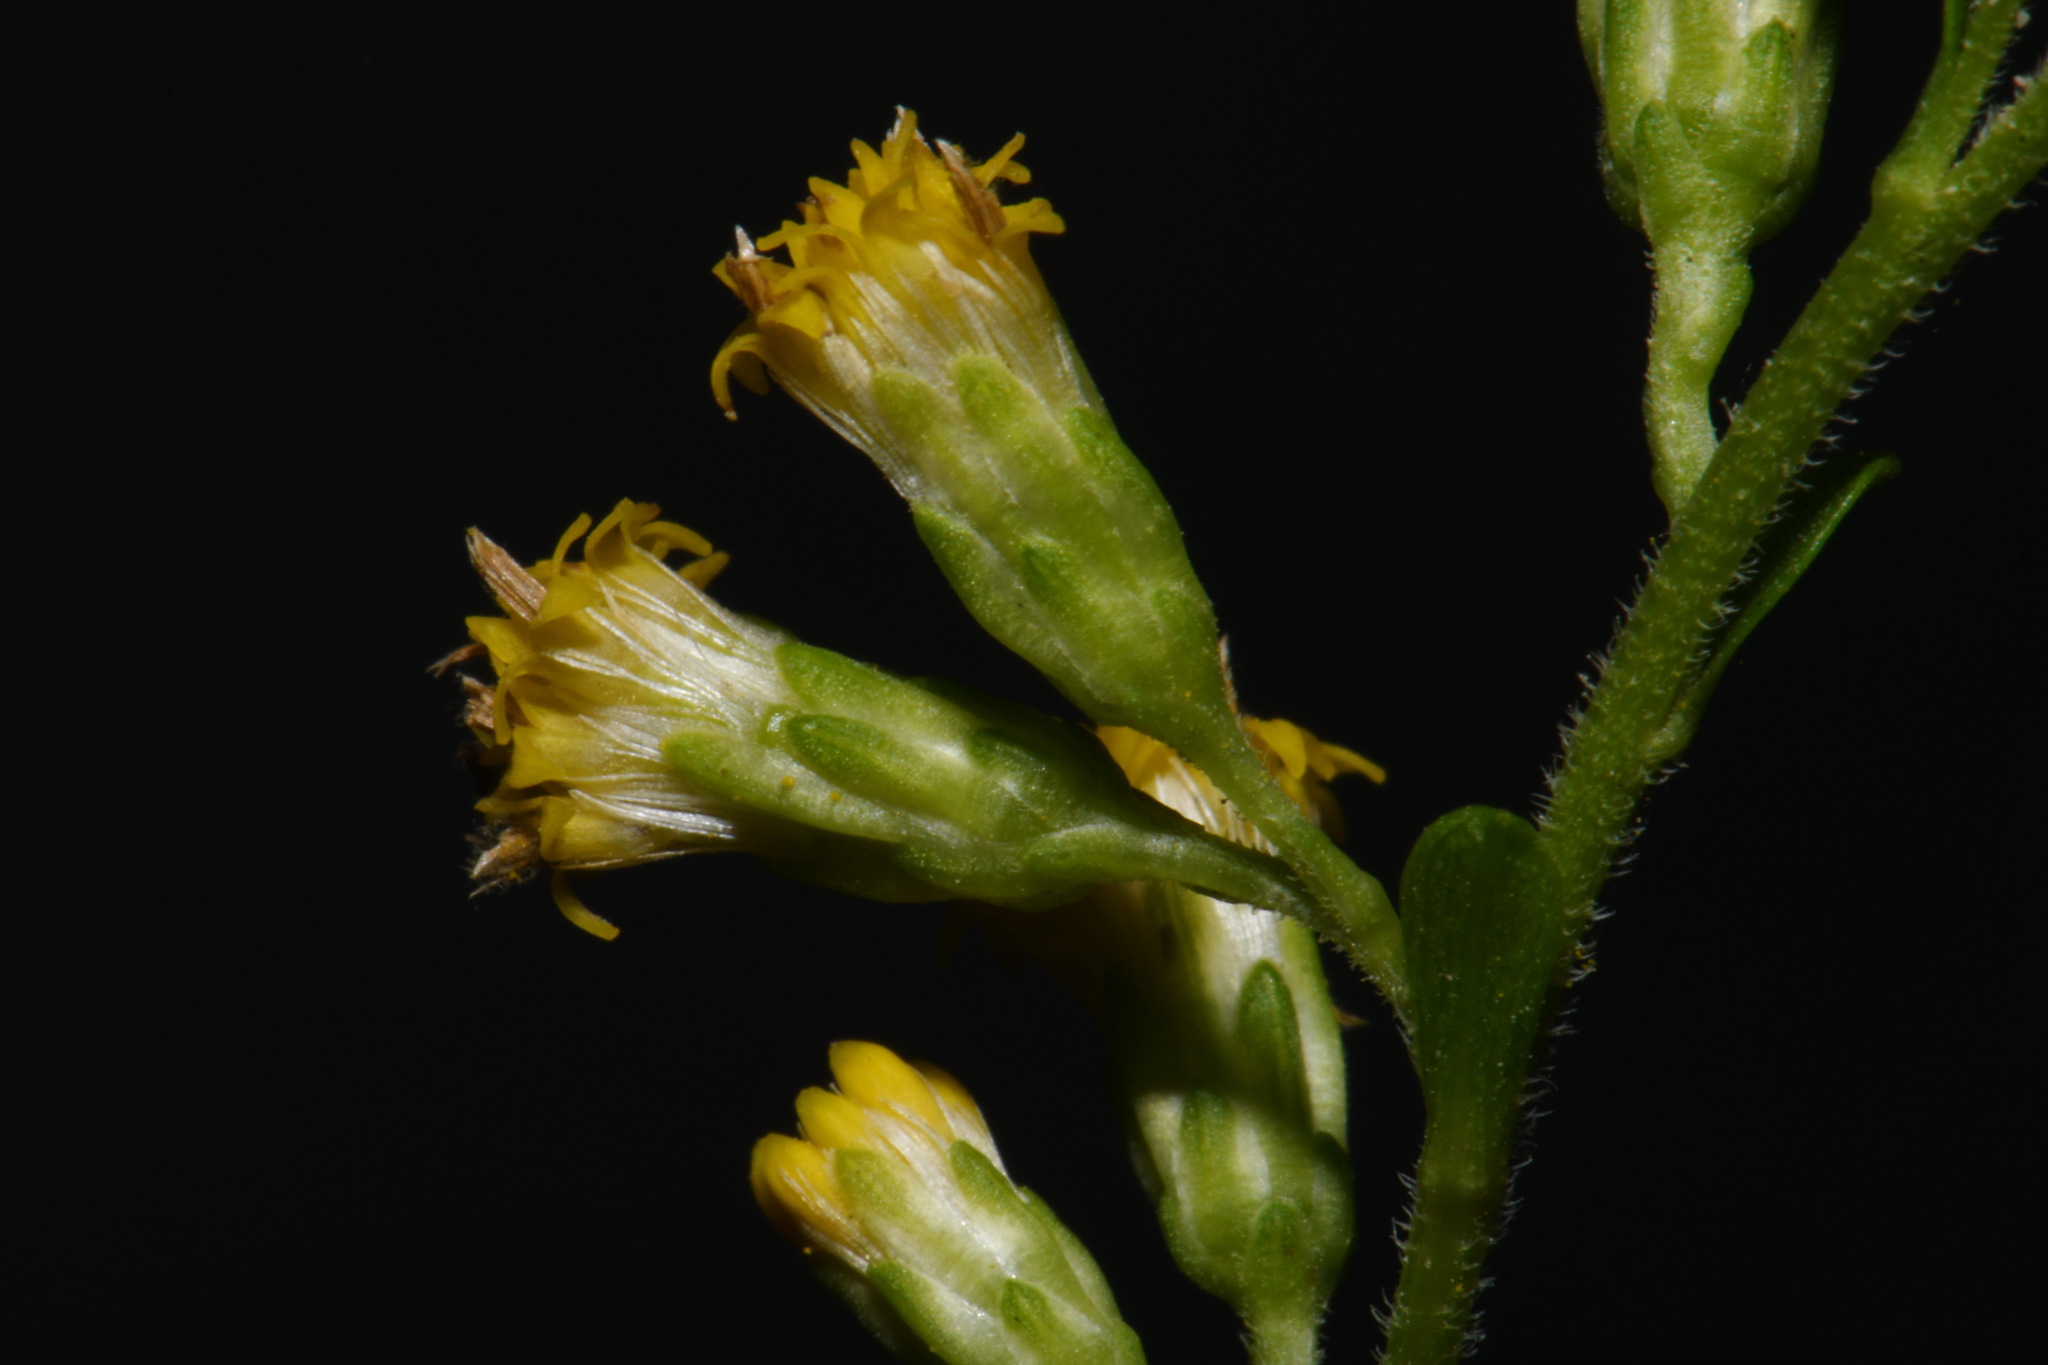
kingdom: Plantae
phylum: Tracheophyta
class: Magnoliopsida
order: Asterales
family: Asteraceae
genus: Solidago
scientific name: Solidago vaseyi
